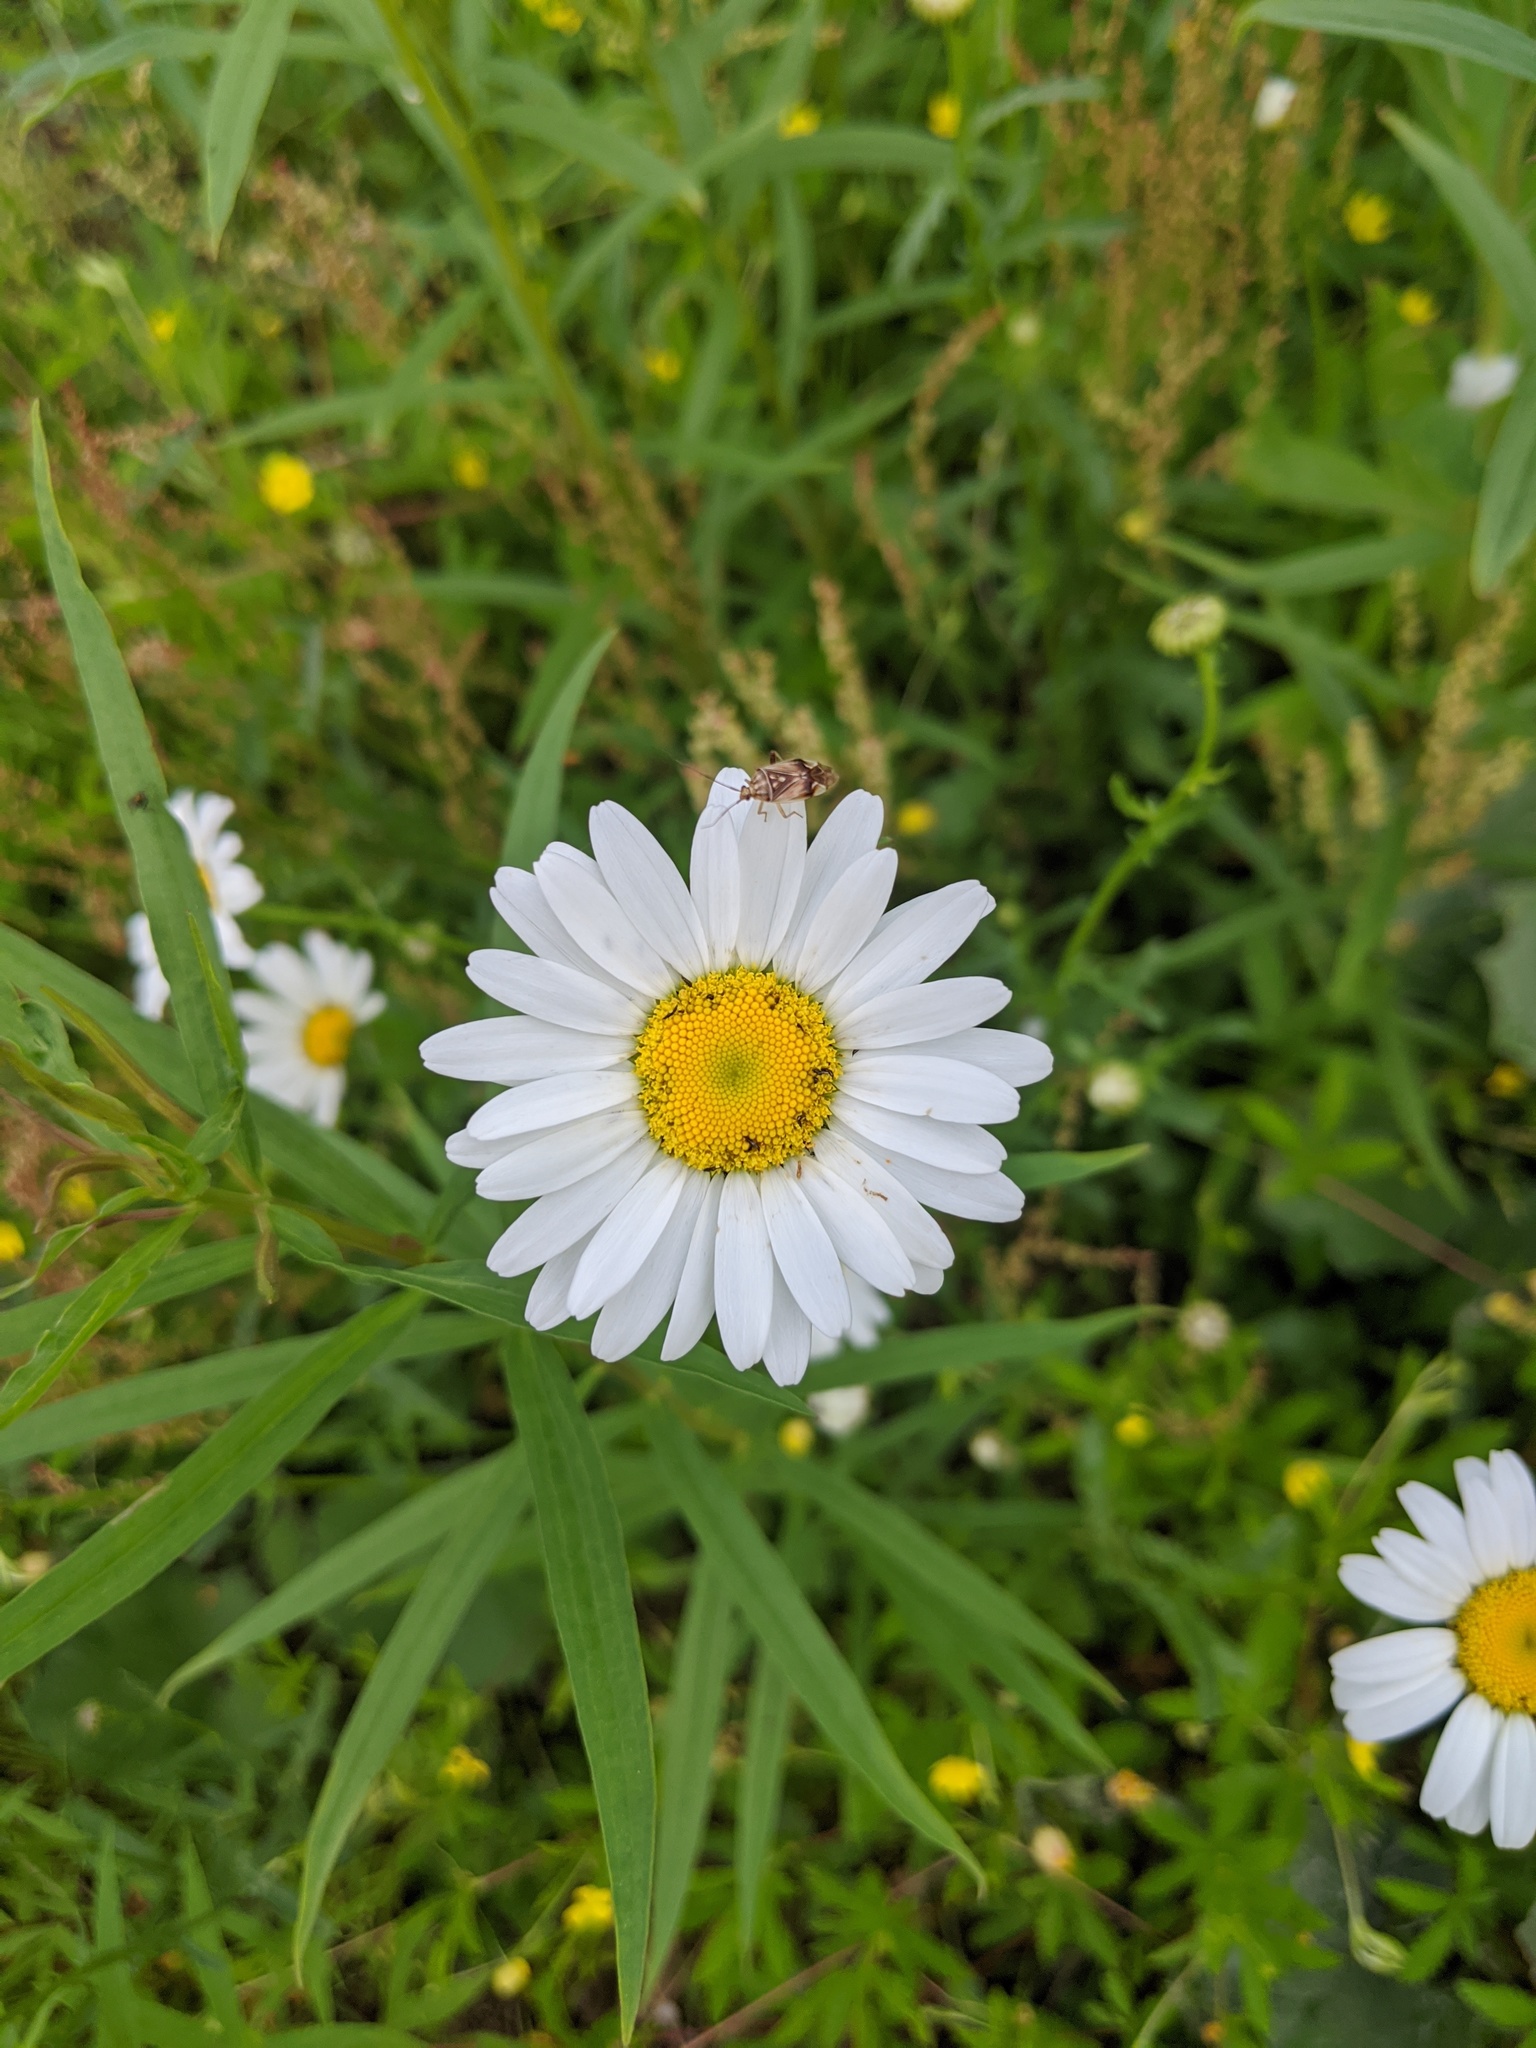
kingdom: Plantae
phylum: Tracheophyta
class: Magnoliopsida
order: Asterales
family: Asteraceae
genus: Leucanthemum
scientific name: Leucanthemum vulgare
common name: Oxeye daisy
